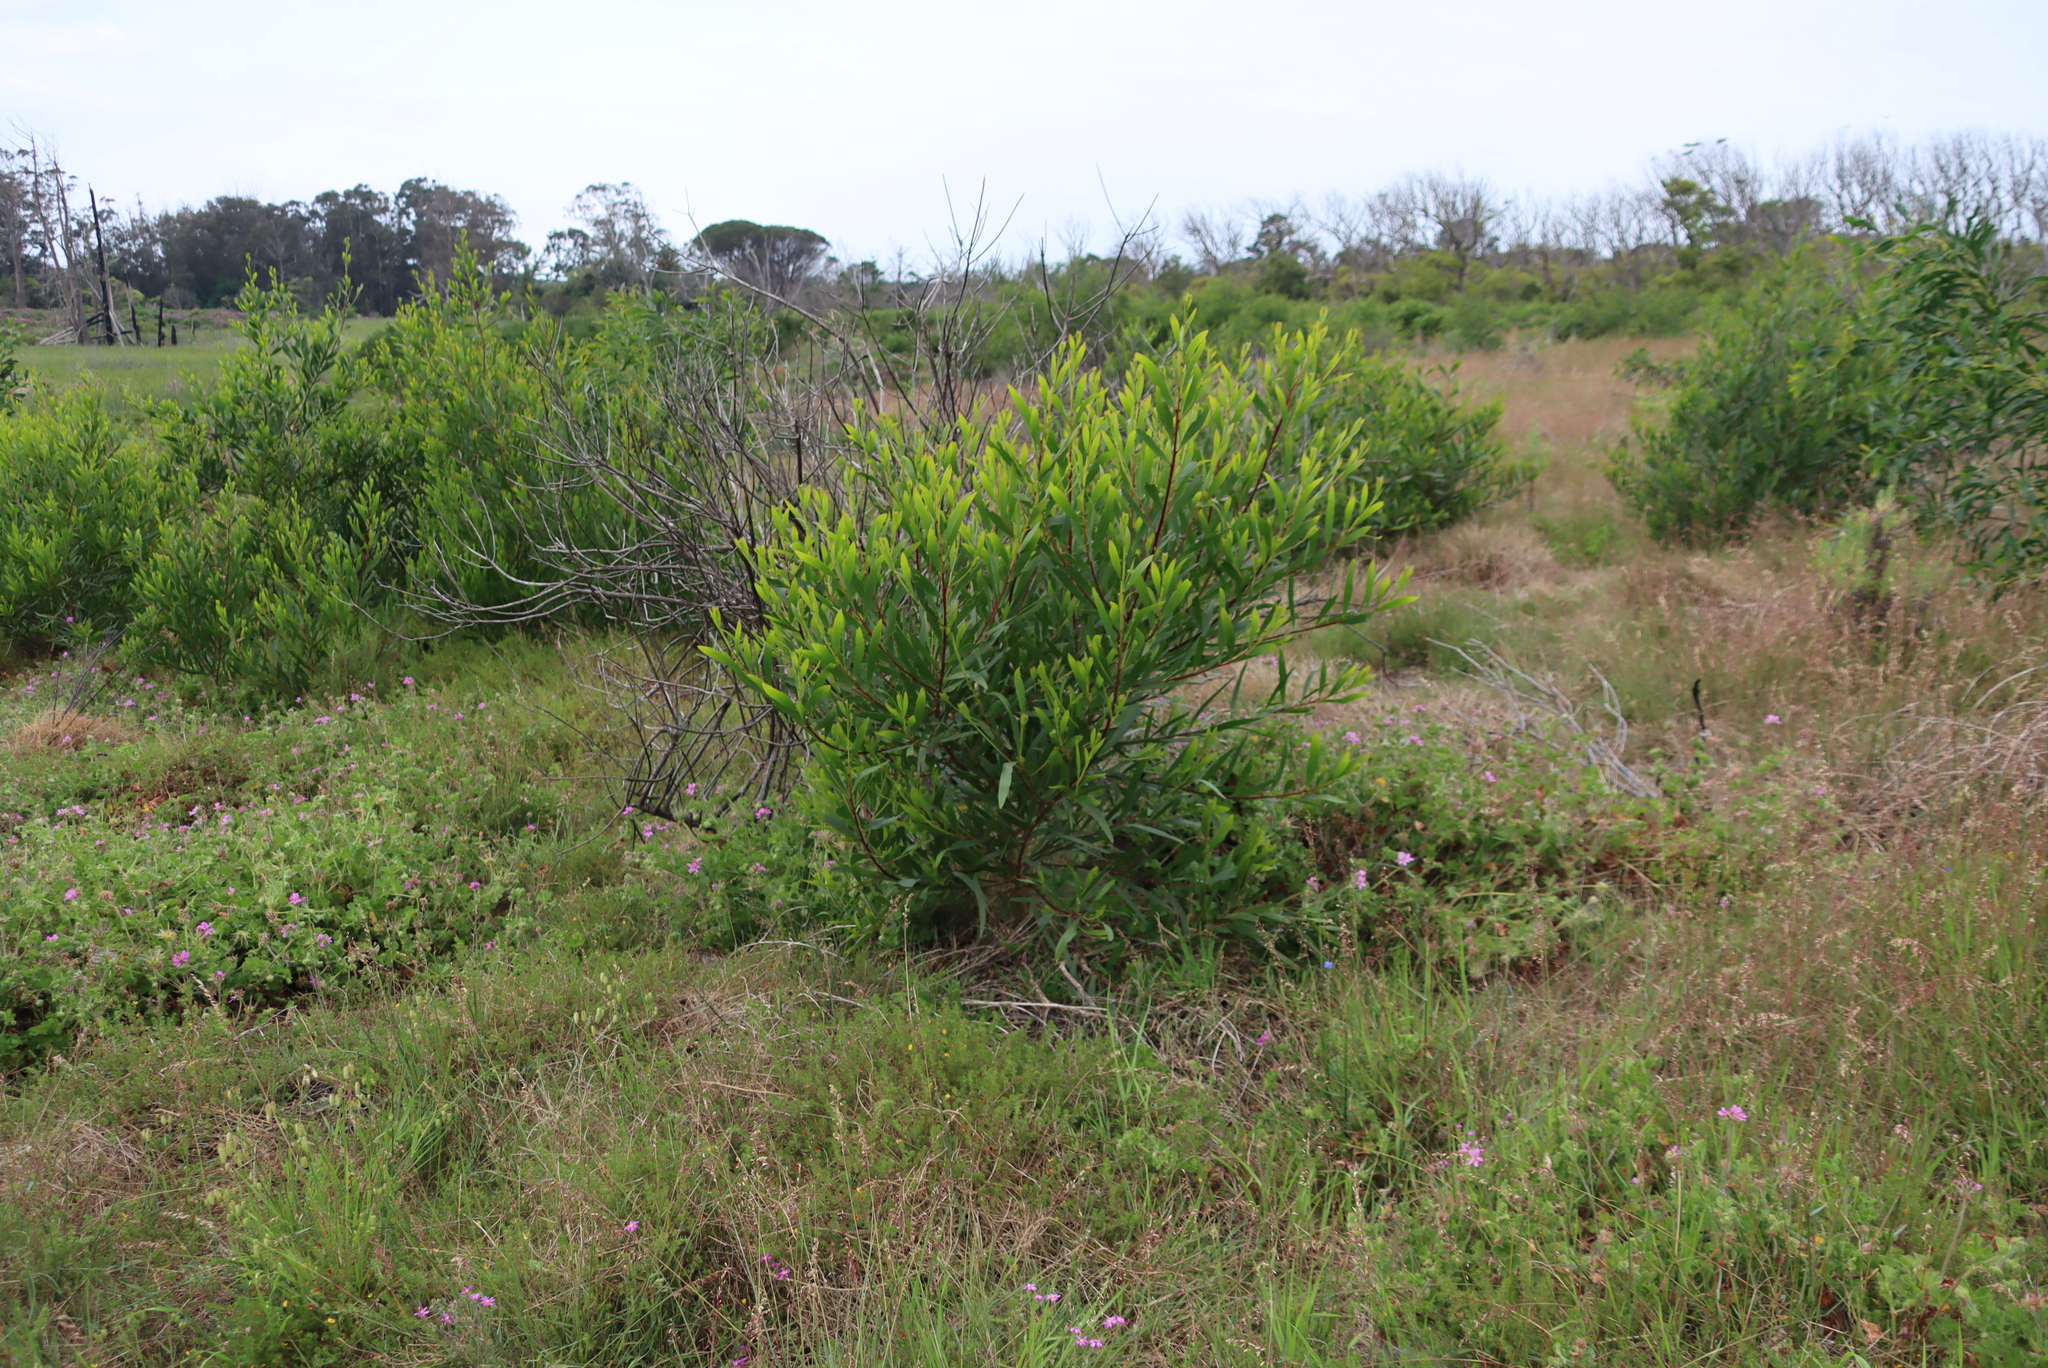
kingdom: Plantae
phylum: Tracheophyta
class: Magnoliopsida
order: Fabales
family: Fabaceae
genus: Acacia
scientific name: Acacia longifolia
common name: Sydney golden wattle
